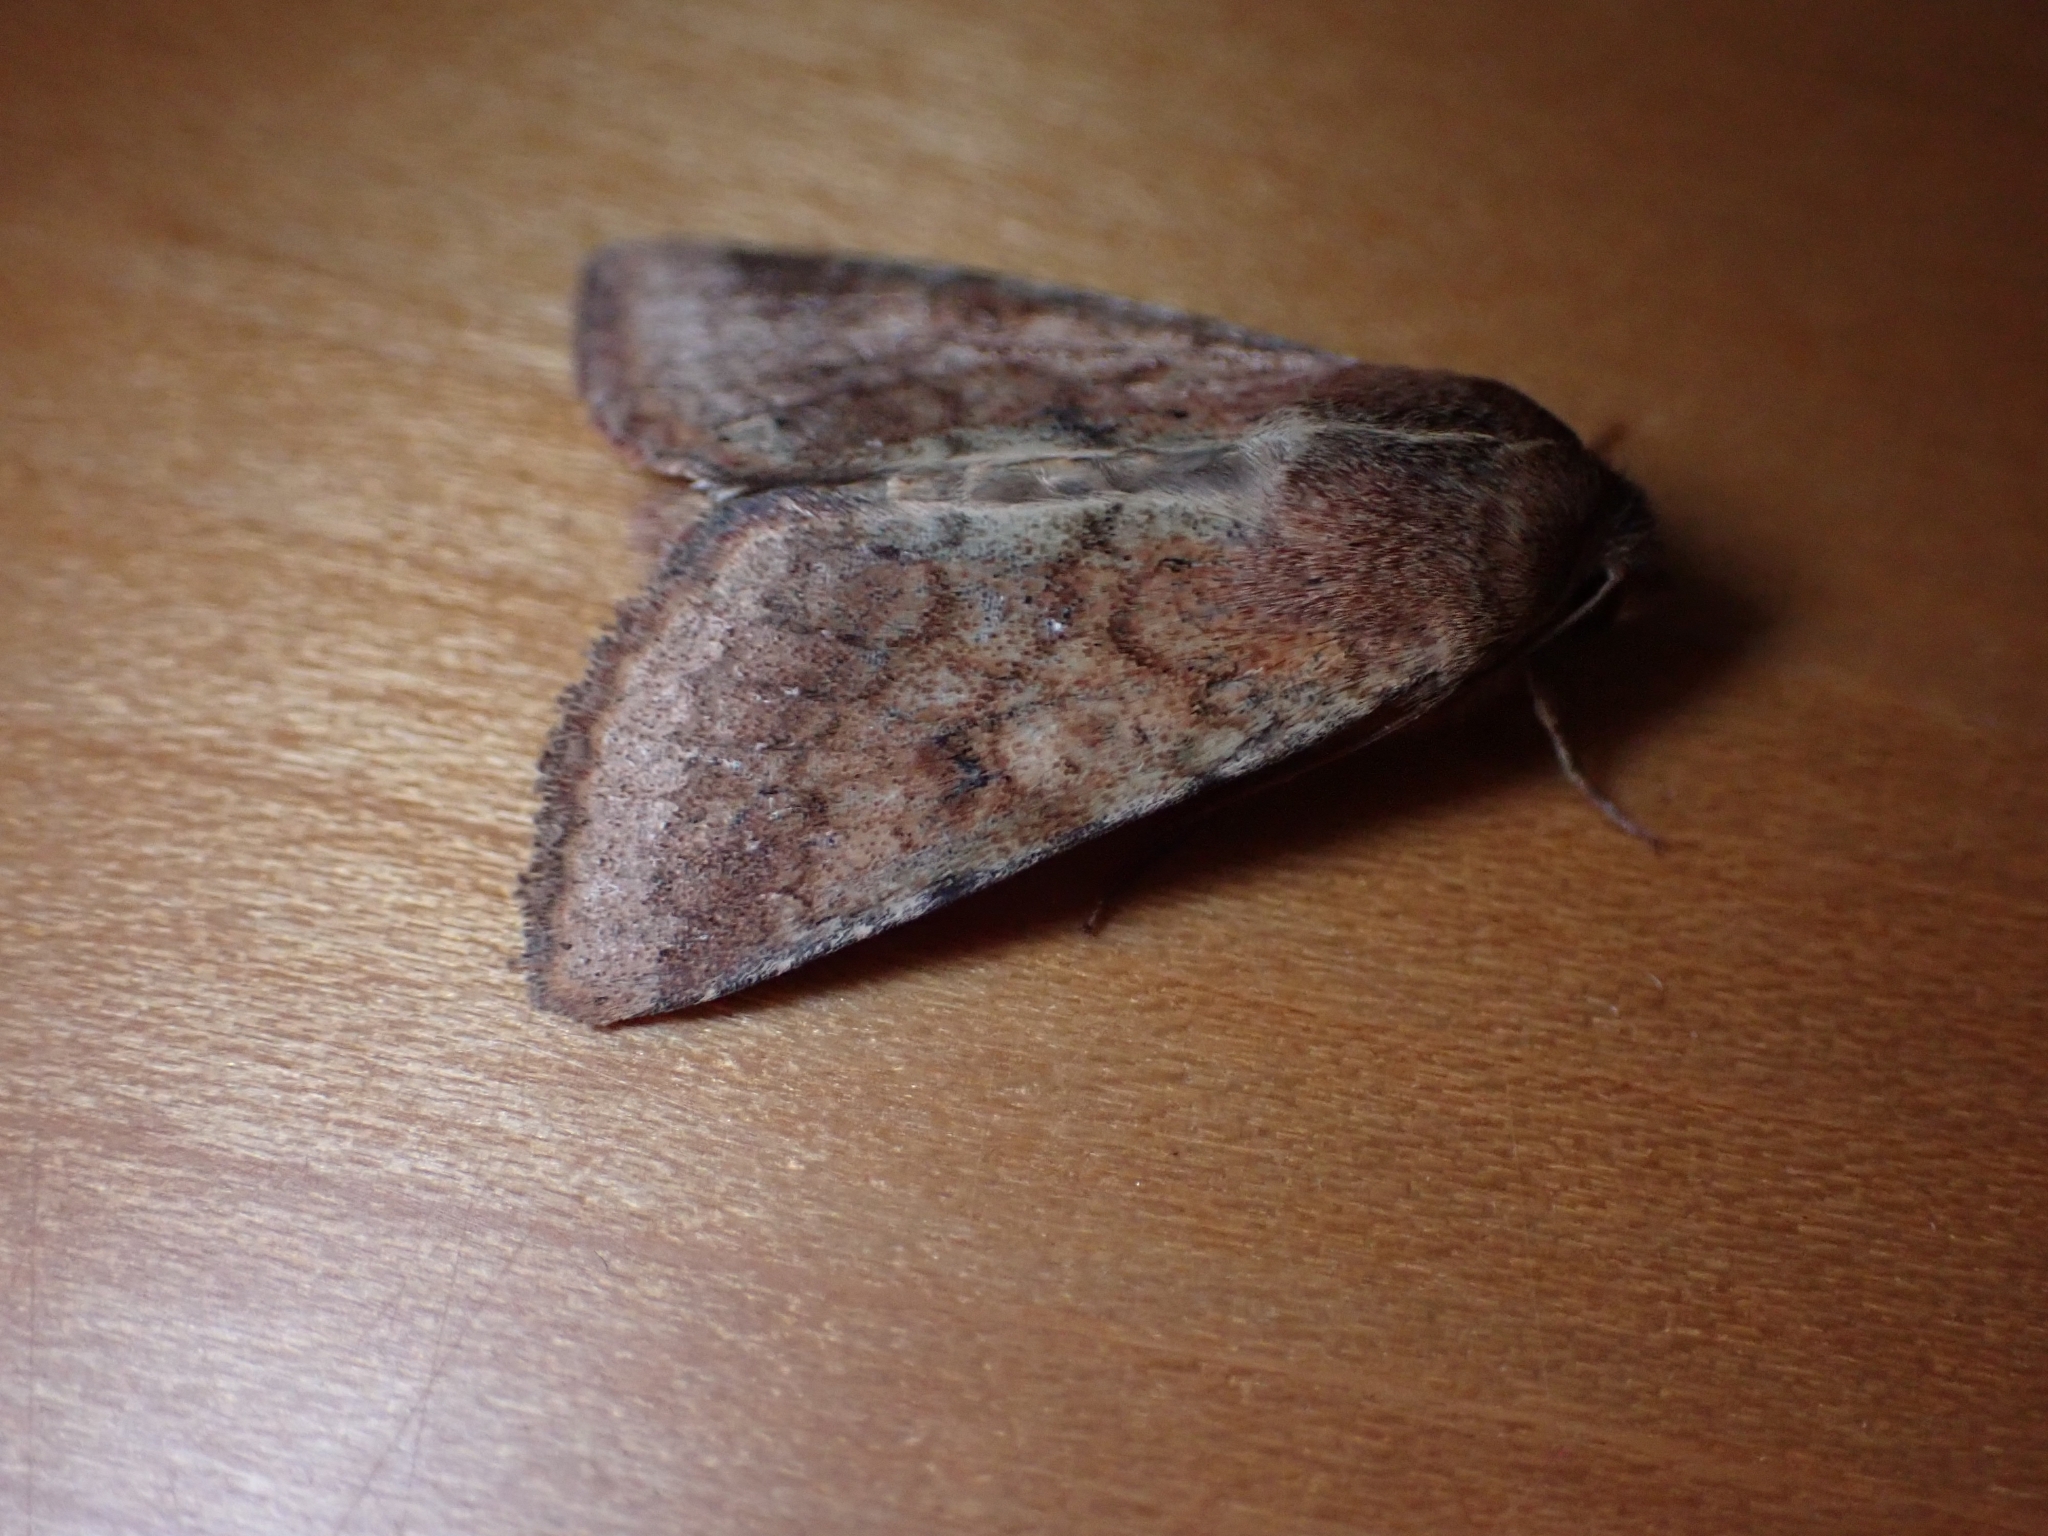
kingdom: Animalia
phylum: Arthropoda
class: Insecta
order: Lepidoptera
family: Noctuidae
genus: Helicoverpa
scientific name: Helicoverpa armigera
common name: Cotton bollworm
